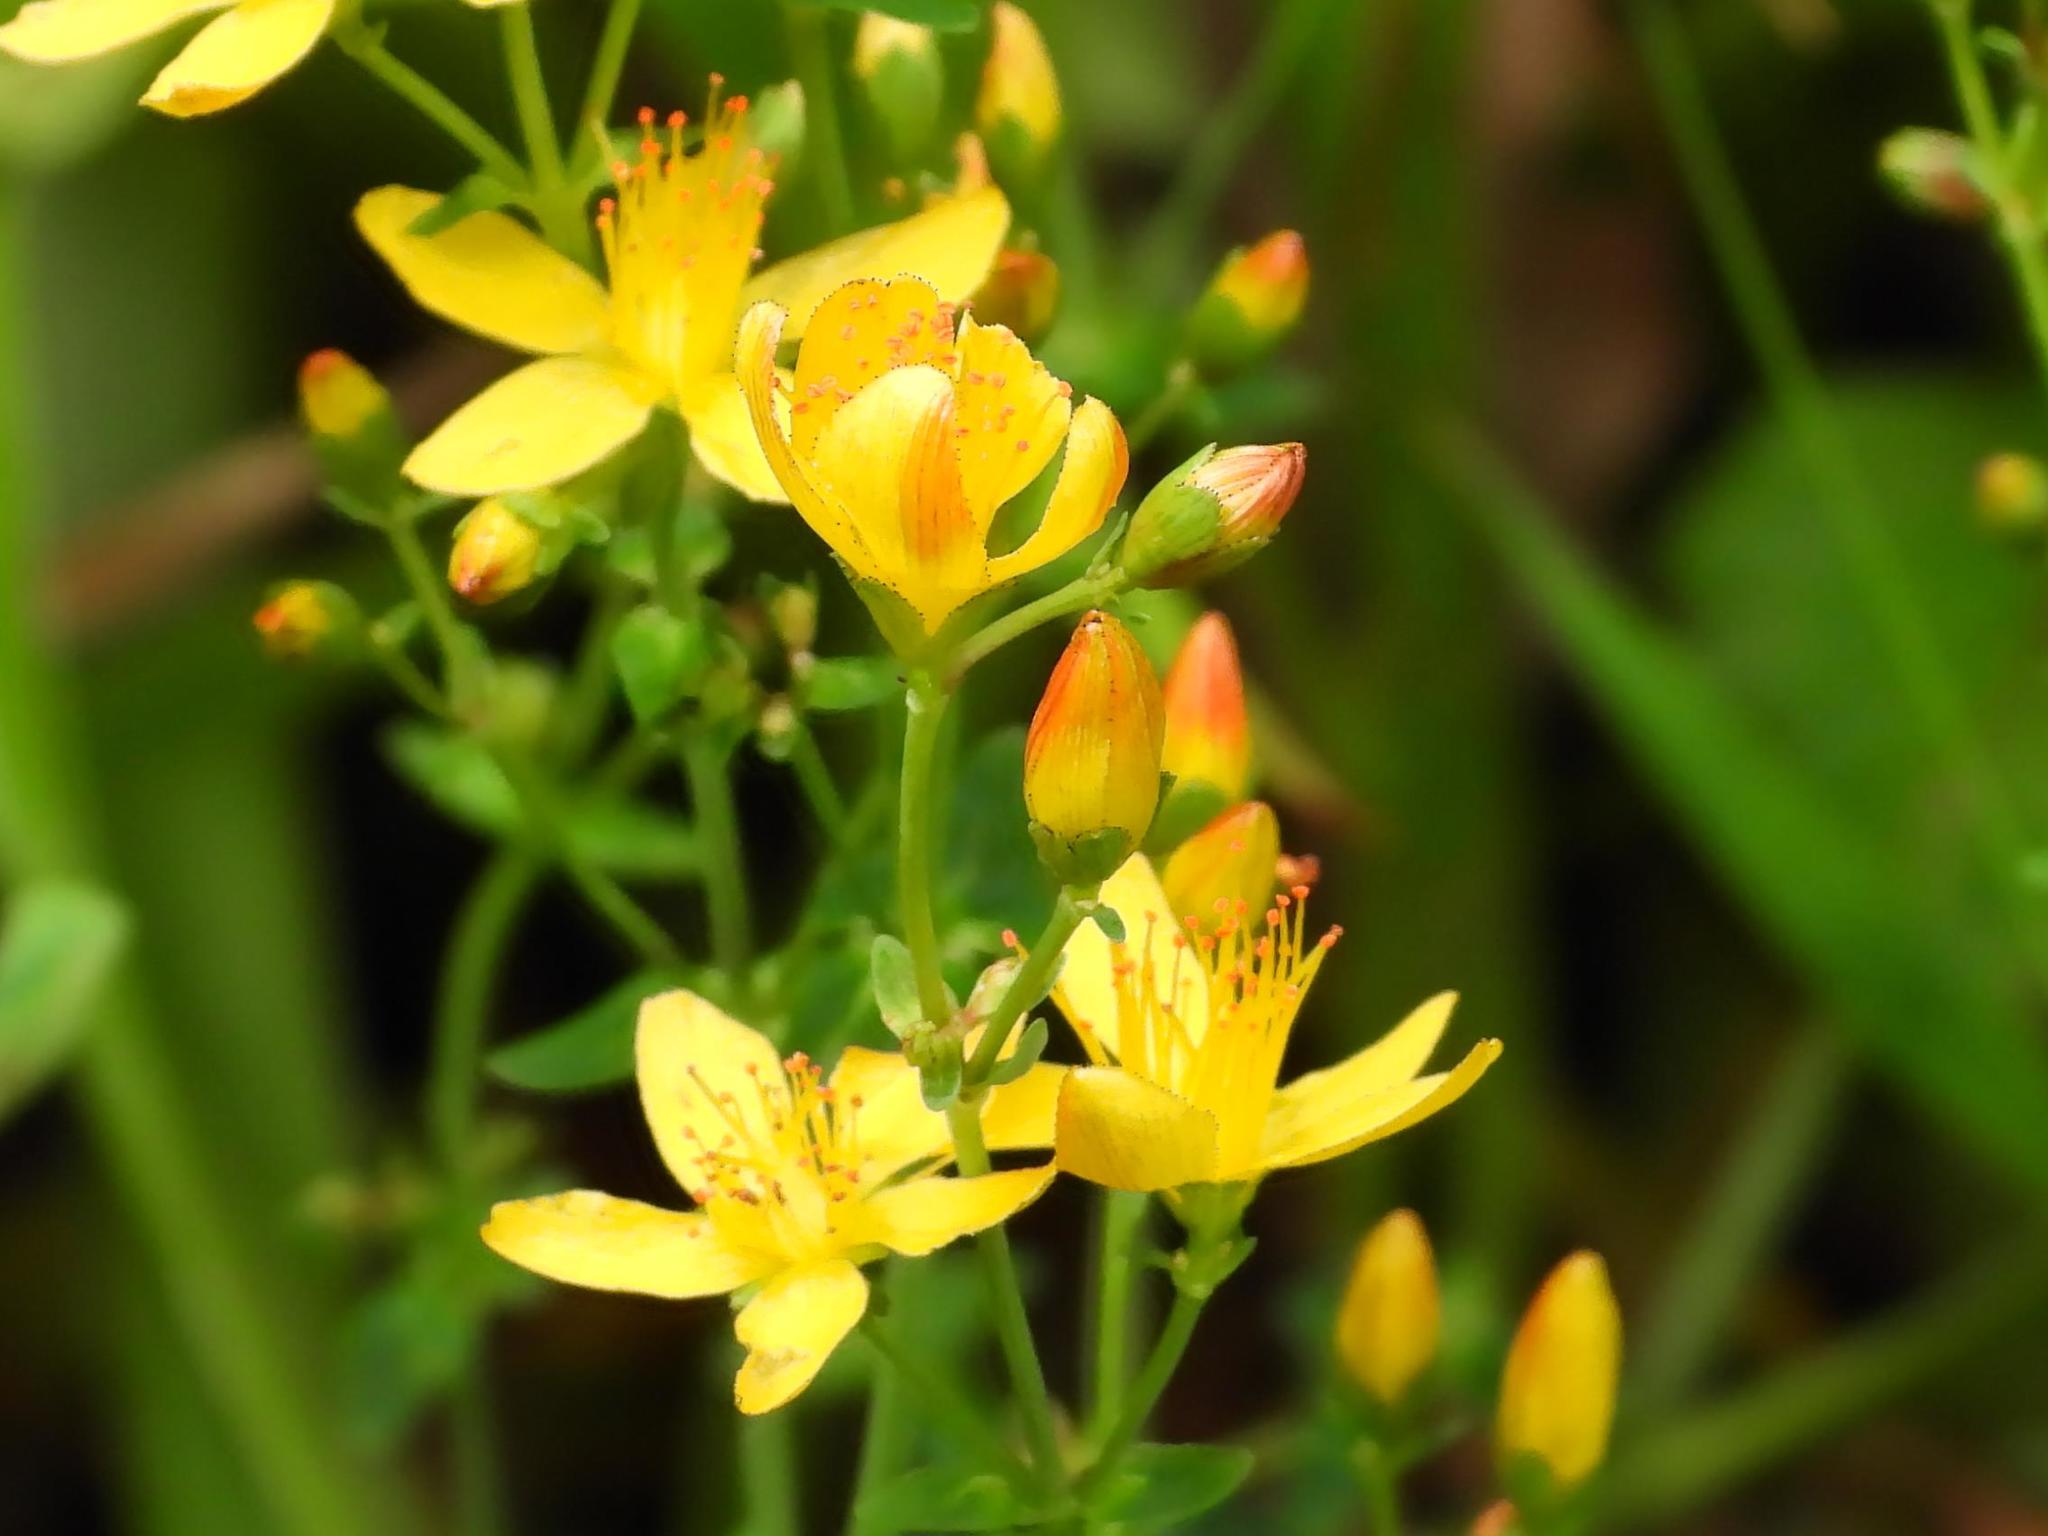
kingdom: Plantae
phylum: Tracheophyta
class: Magnoliopsida
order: Malpighiales
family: Hypericaceae
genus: Hypericum
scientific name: Hypericum pulchrum
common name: Slender st. john's-wort
